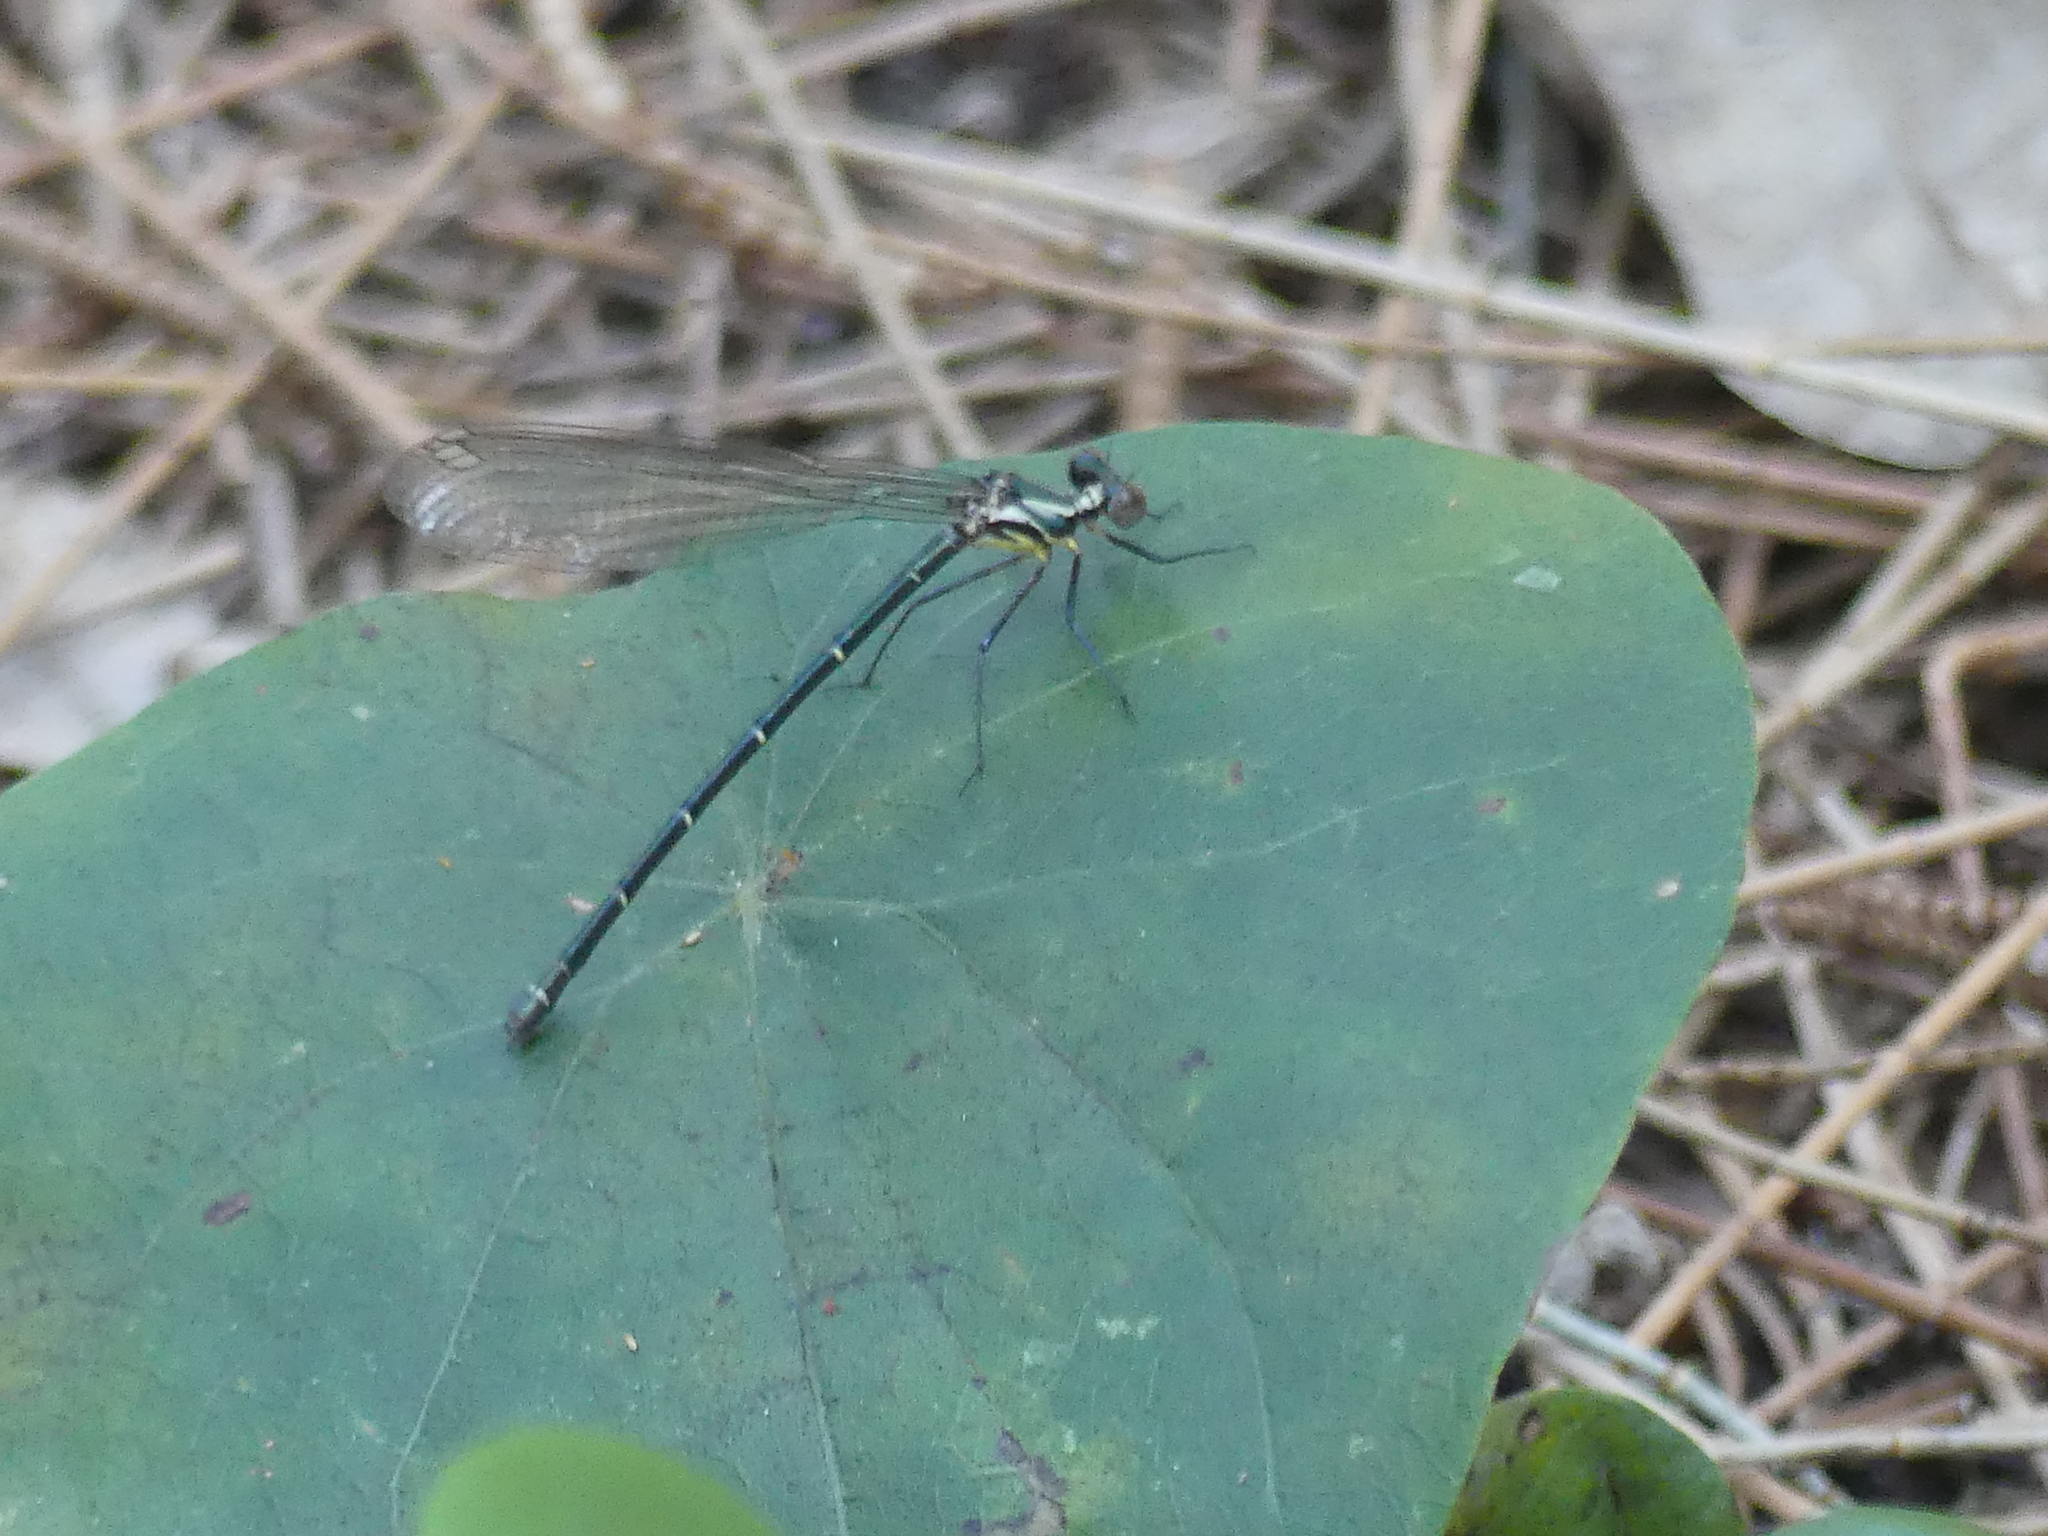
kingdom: Animalia
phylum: Arthropoda
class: Insecta
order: Odonata
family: Argiolestidae
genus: Austroargiolestes
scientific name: Austroargiolestes icteromelas
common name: Common flatwing
